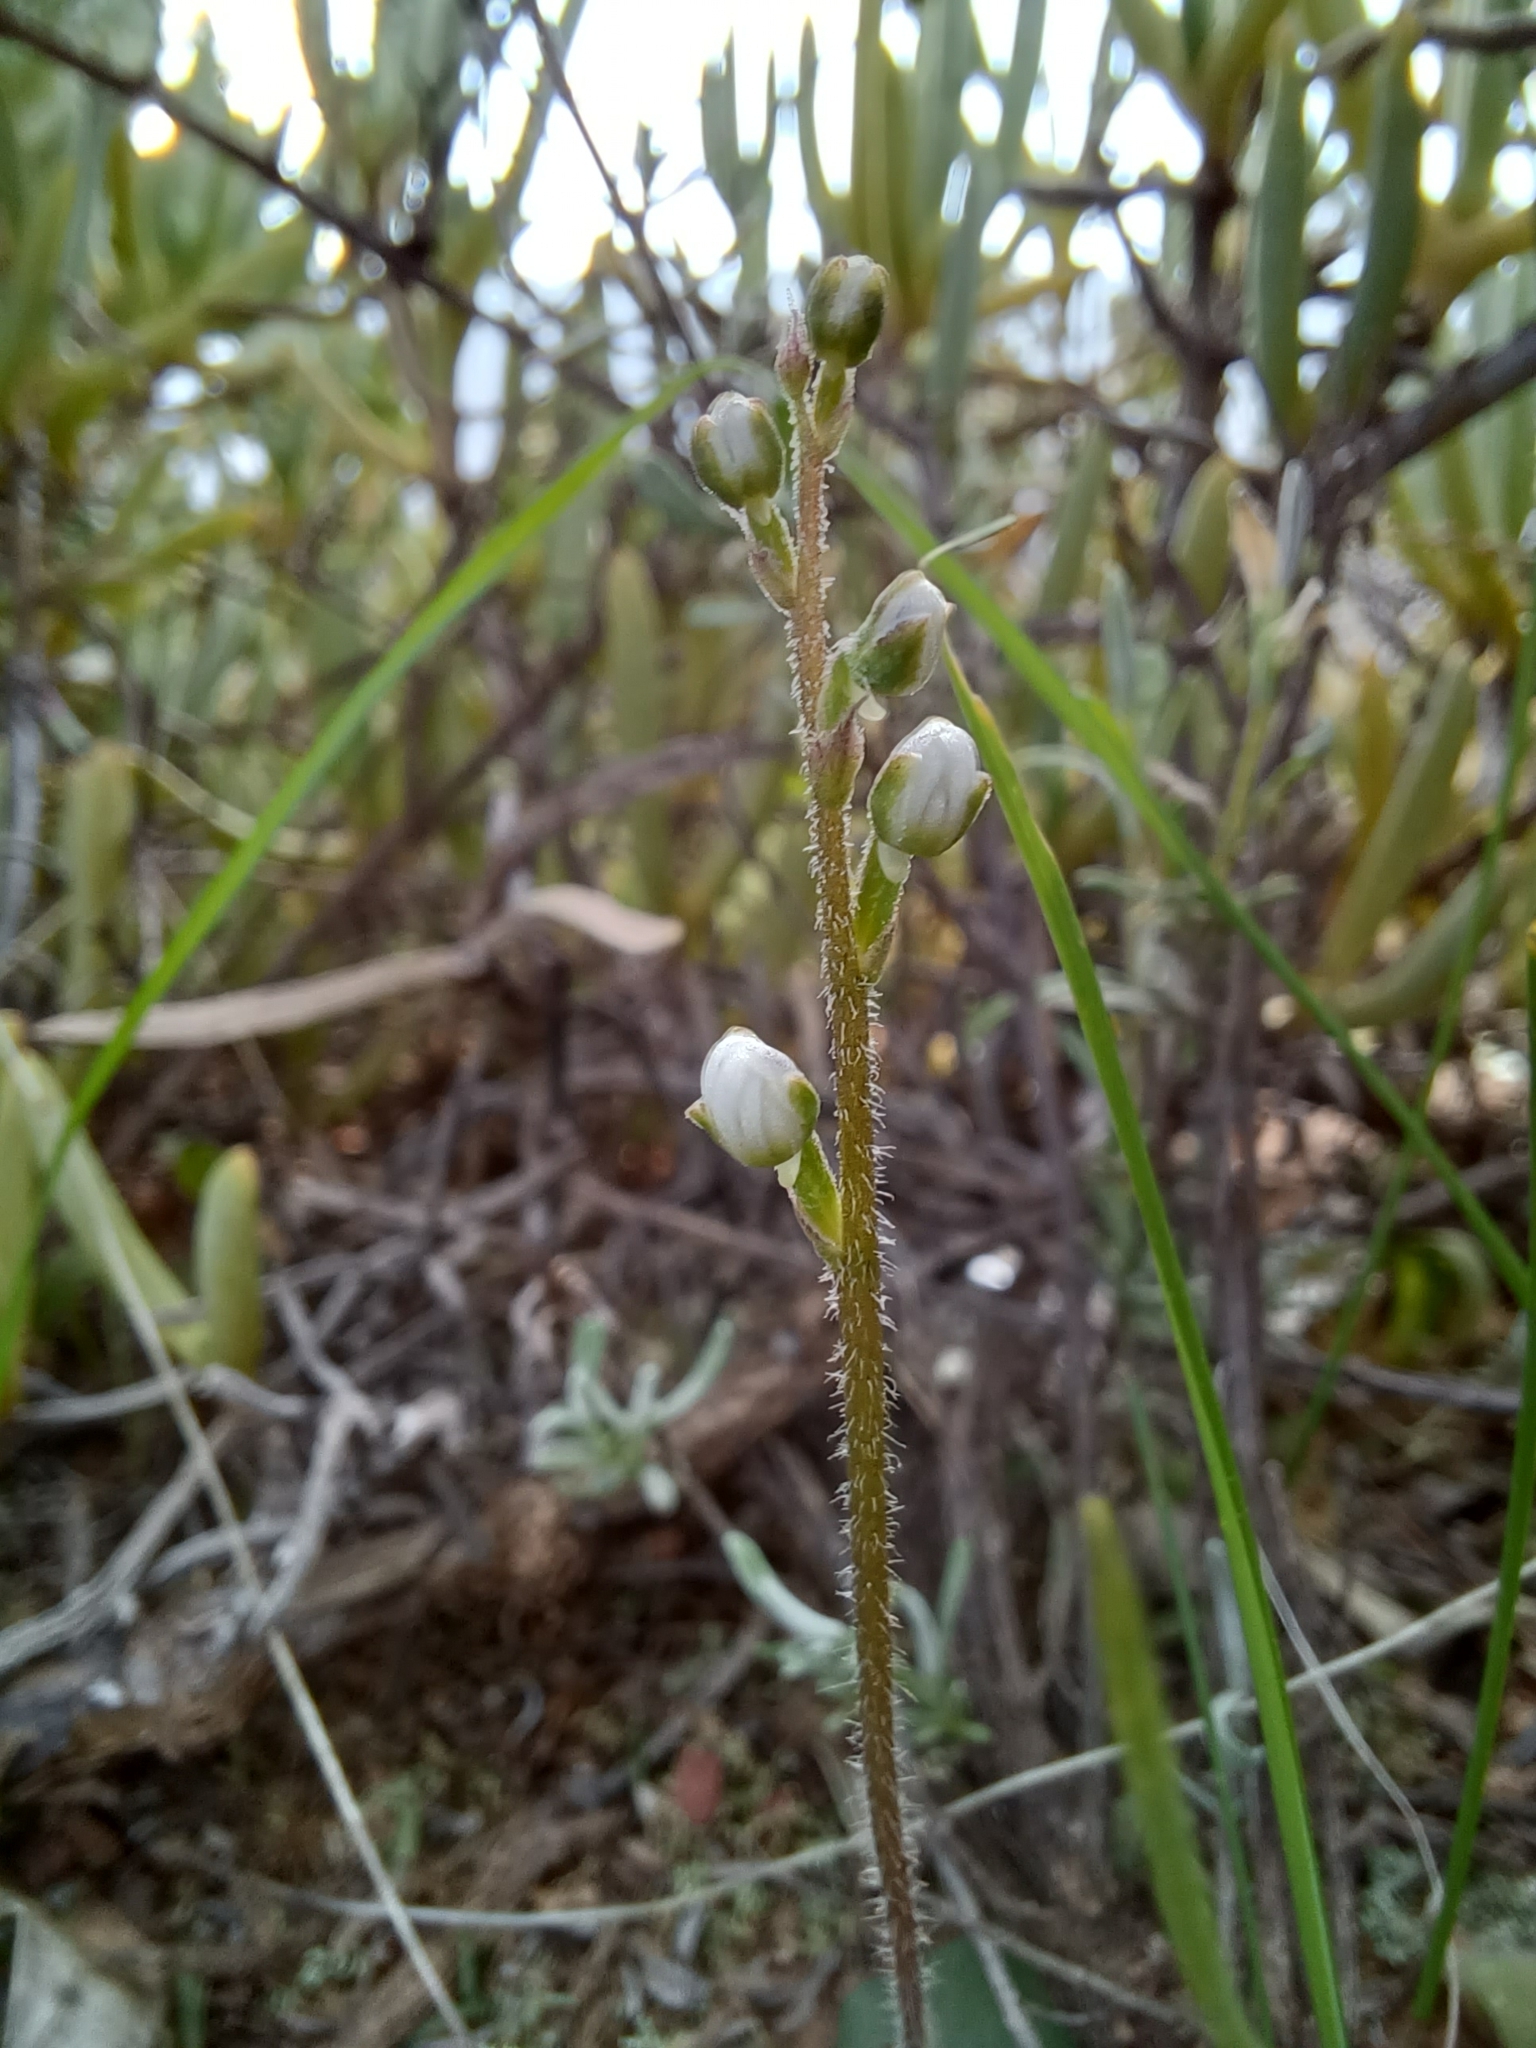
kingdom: Plantae
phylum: Tracheophyta
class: Liliopsida
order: Asparagales
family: Orchidaceae
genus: Holothrix
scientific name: Holothrix aspera
